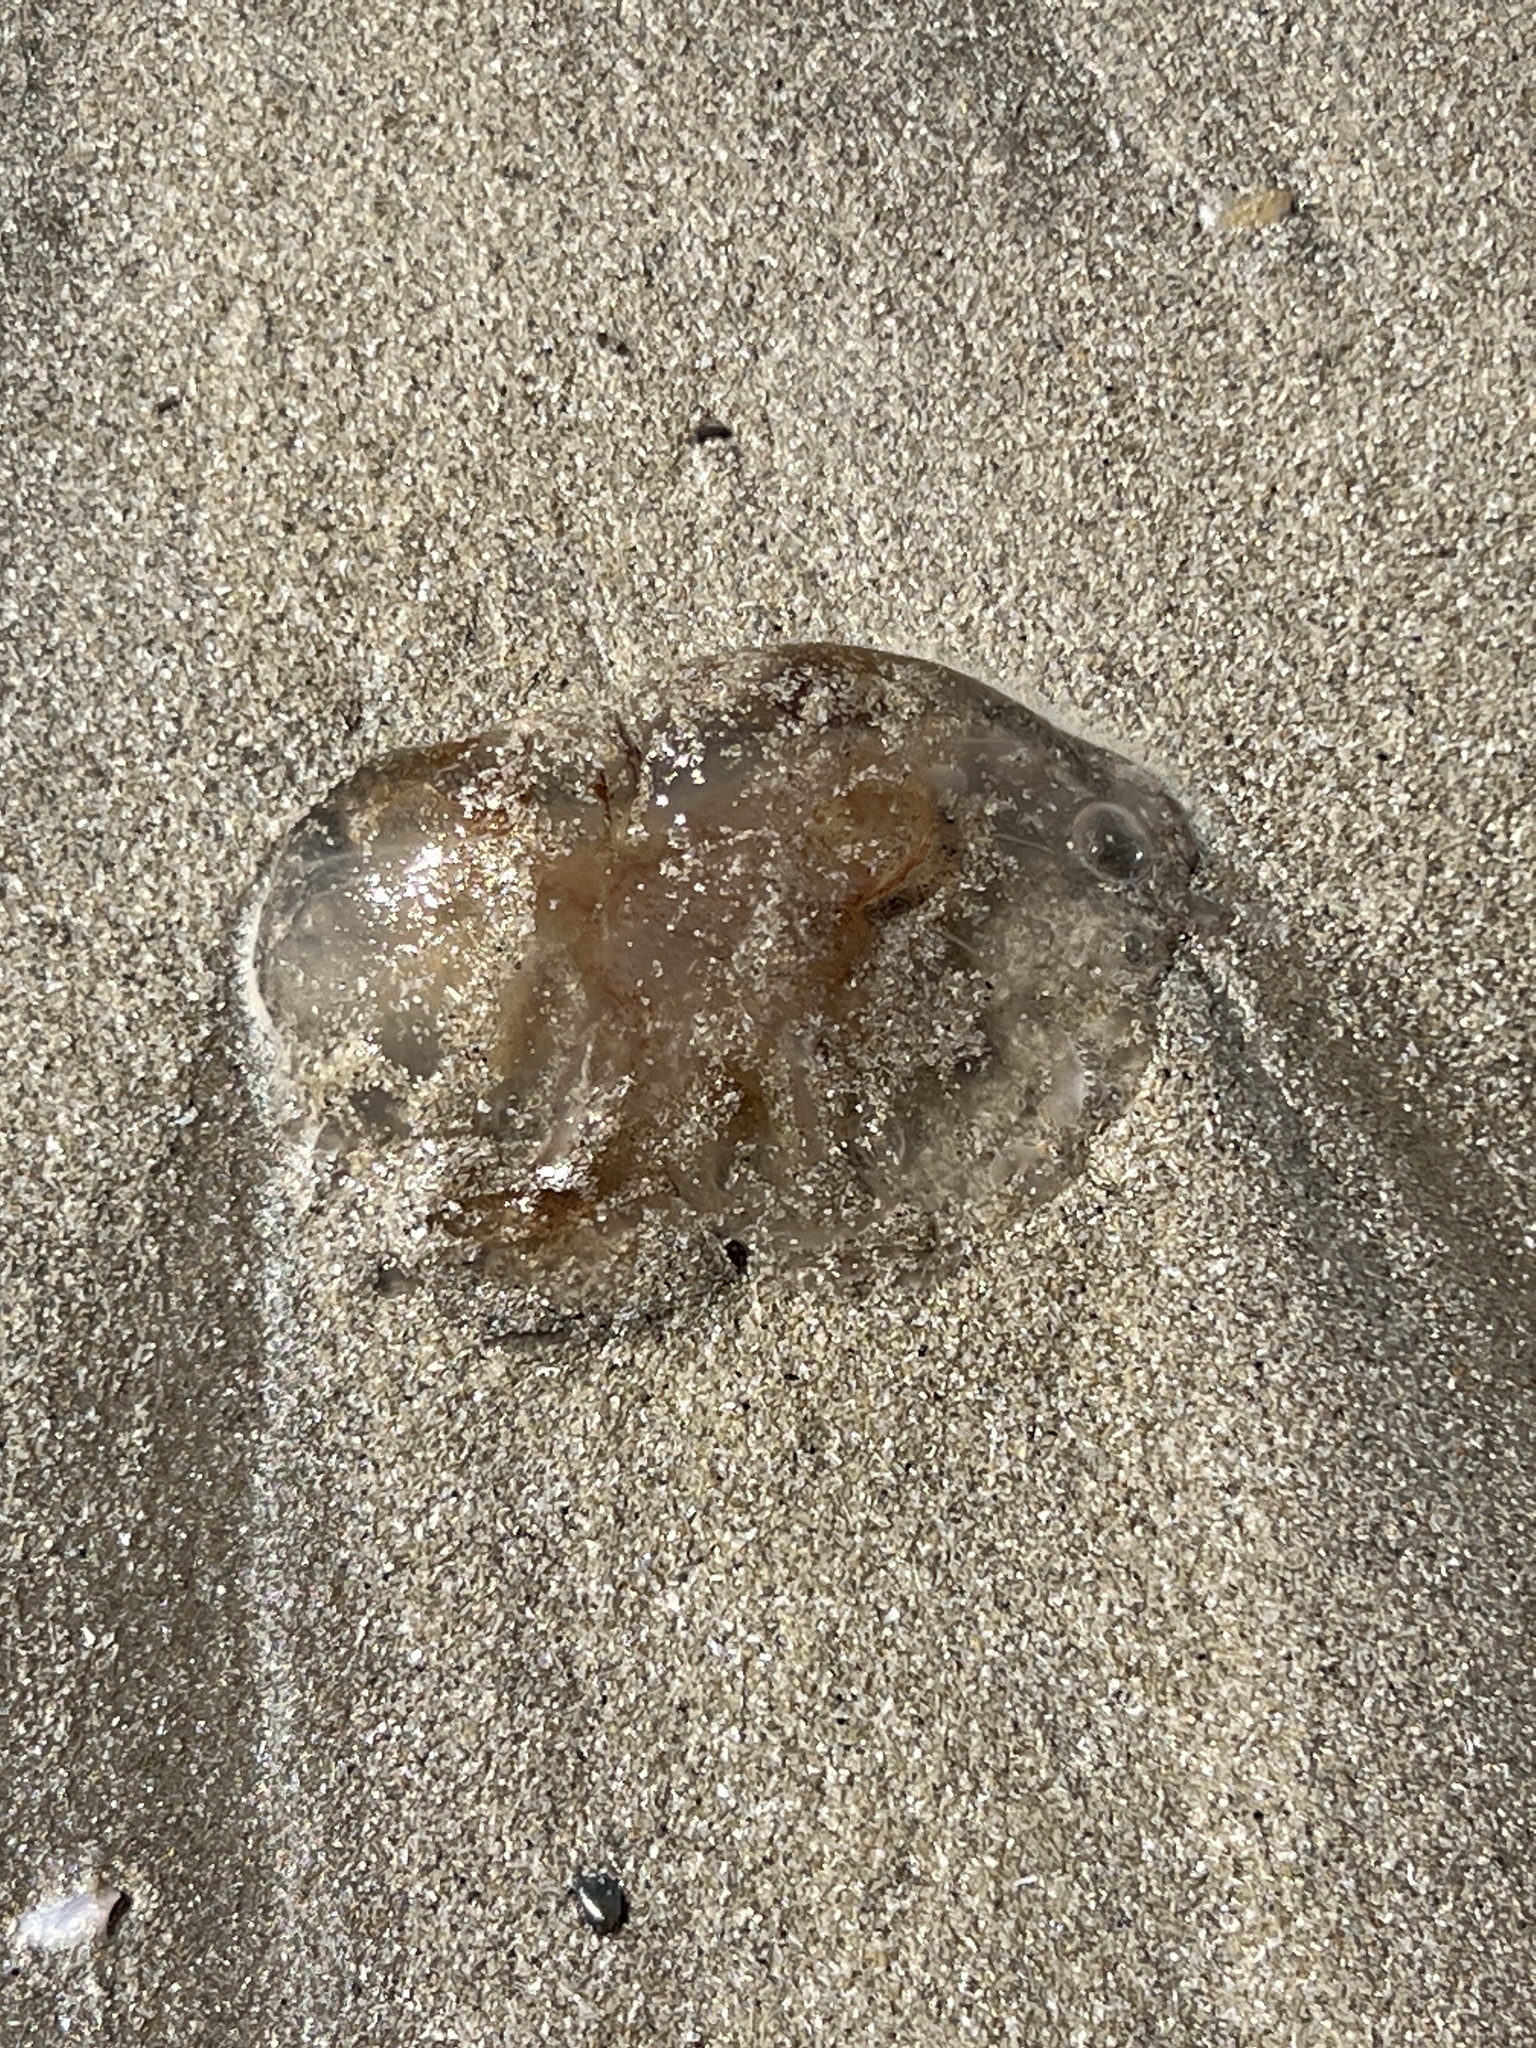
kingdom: Animalia
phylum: Cnidaria
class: Scyphozoa
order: Semaeostomeae
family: Pelagiidae
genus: Chrysaora
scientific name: Chrysaora chesapeakei
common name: Bay nettle
